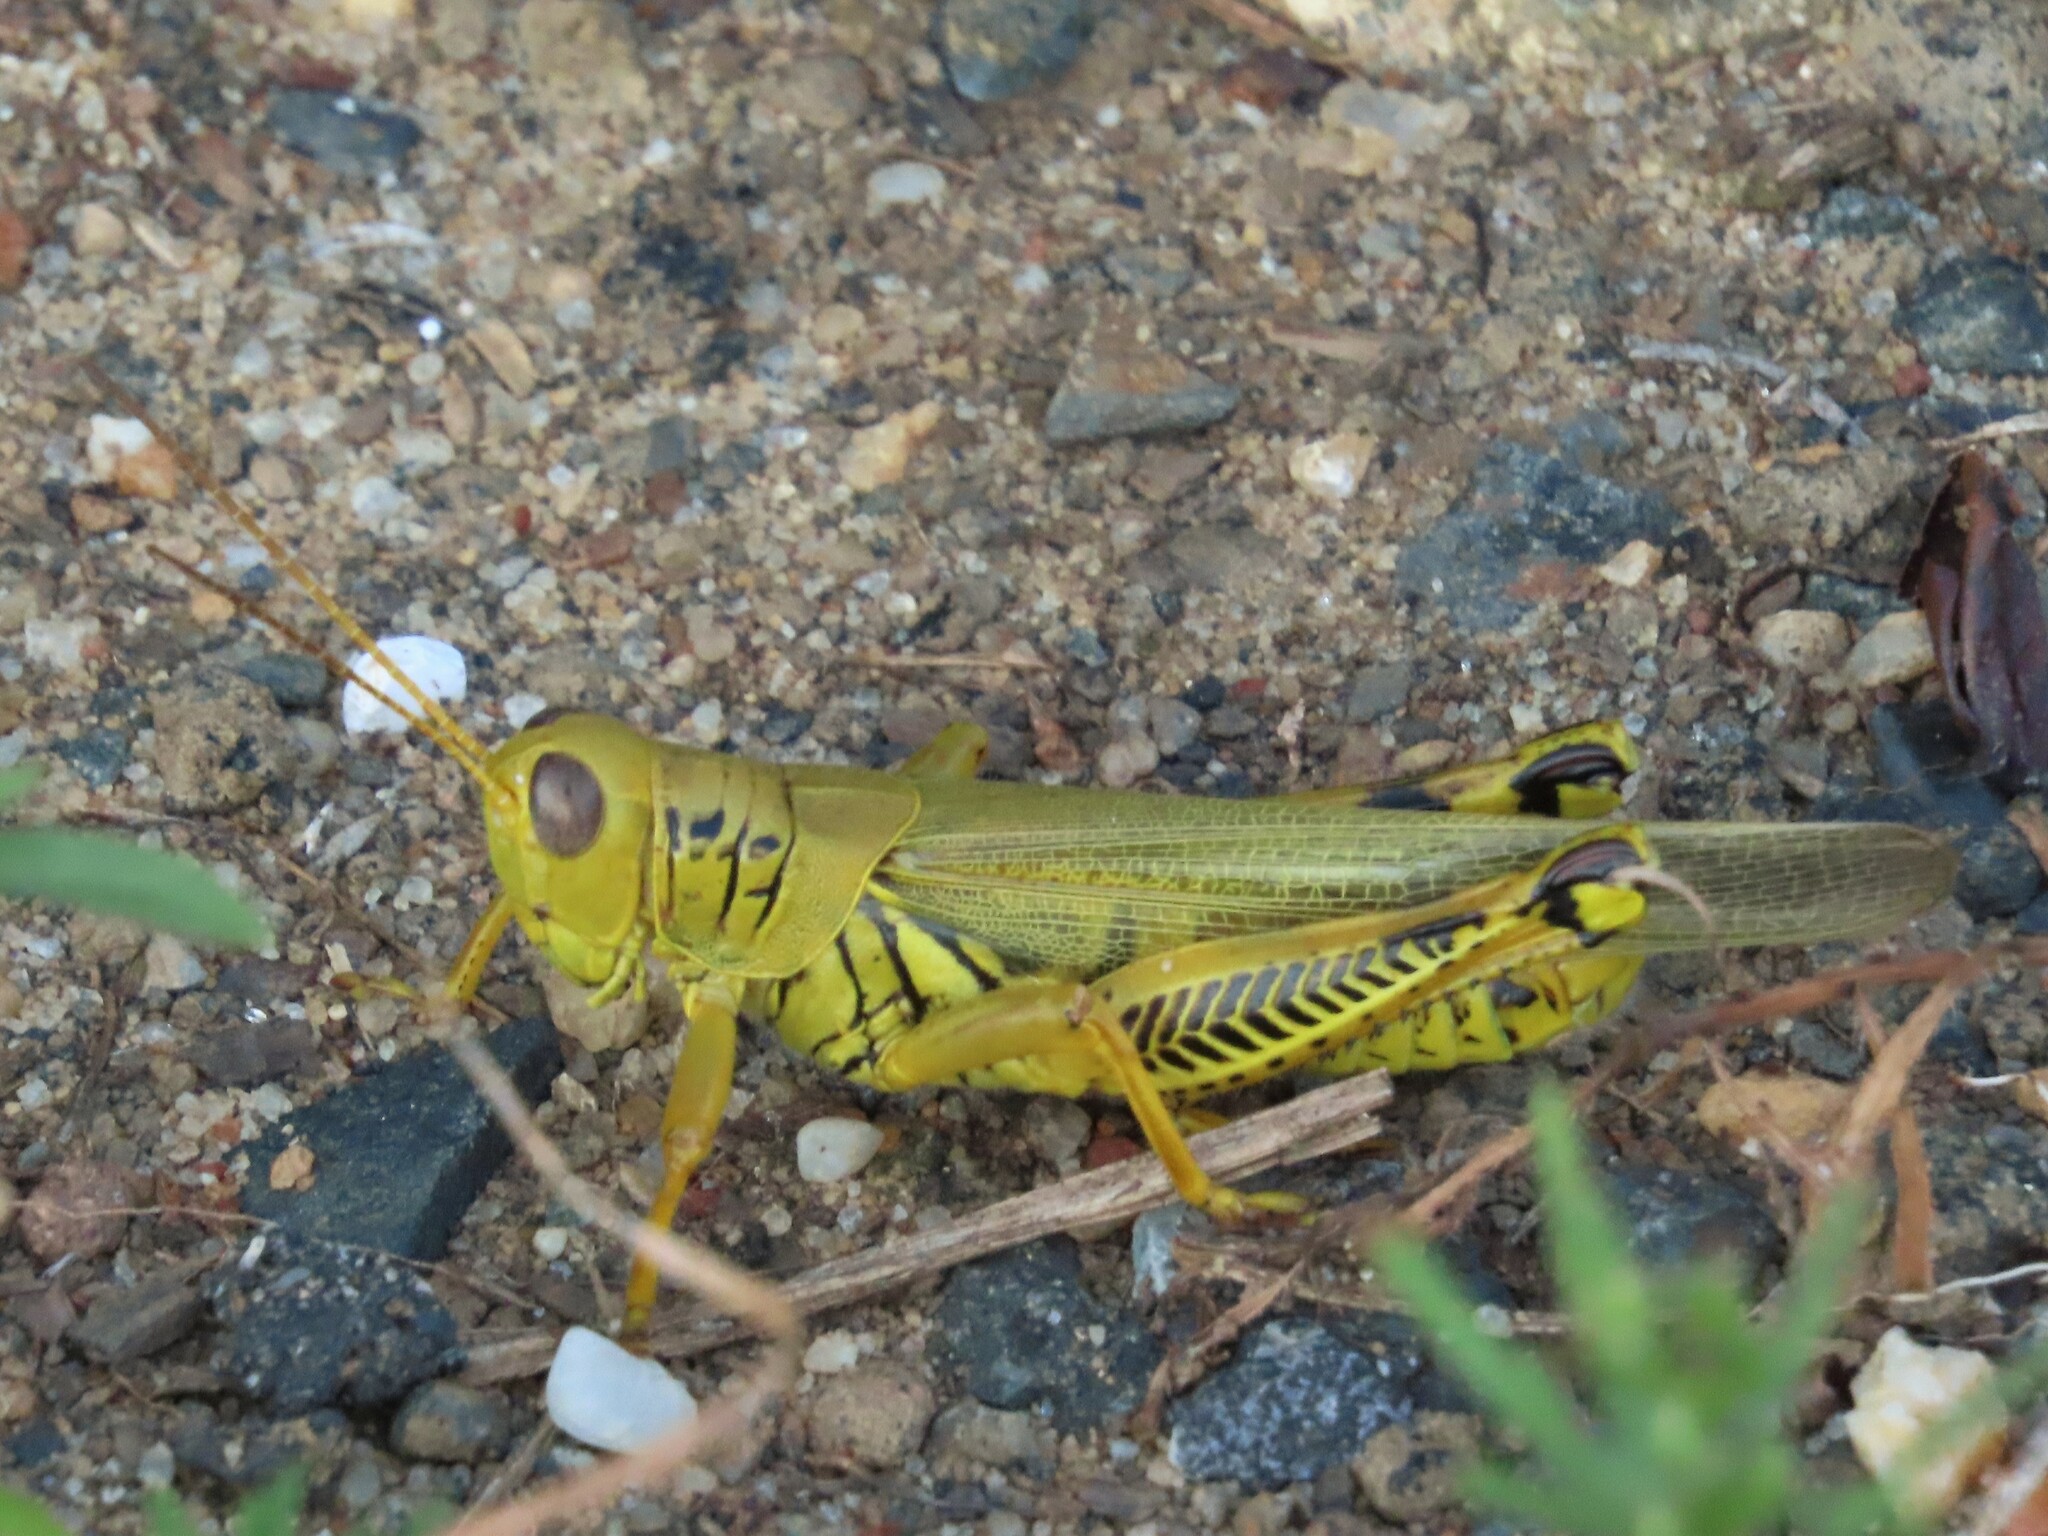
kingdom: Animalia
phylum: Arthropoda
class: Insecta
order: Orthoptera
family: Acrididae
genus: Melanoplus
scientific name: Melanoplus differentialis
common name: Differential grasshopper
